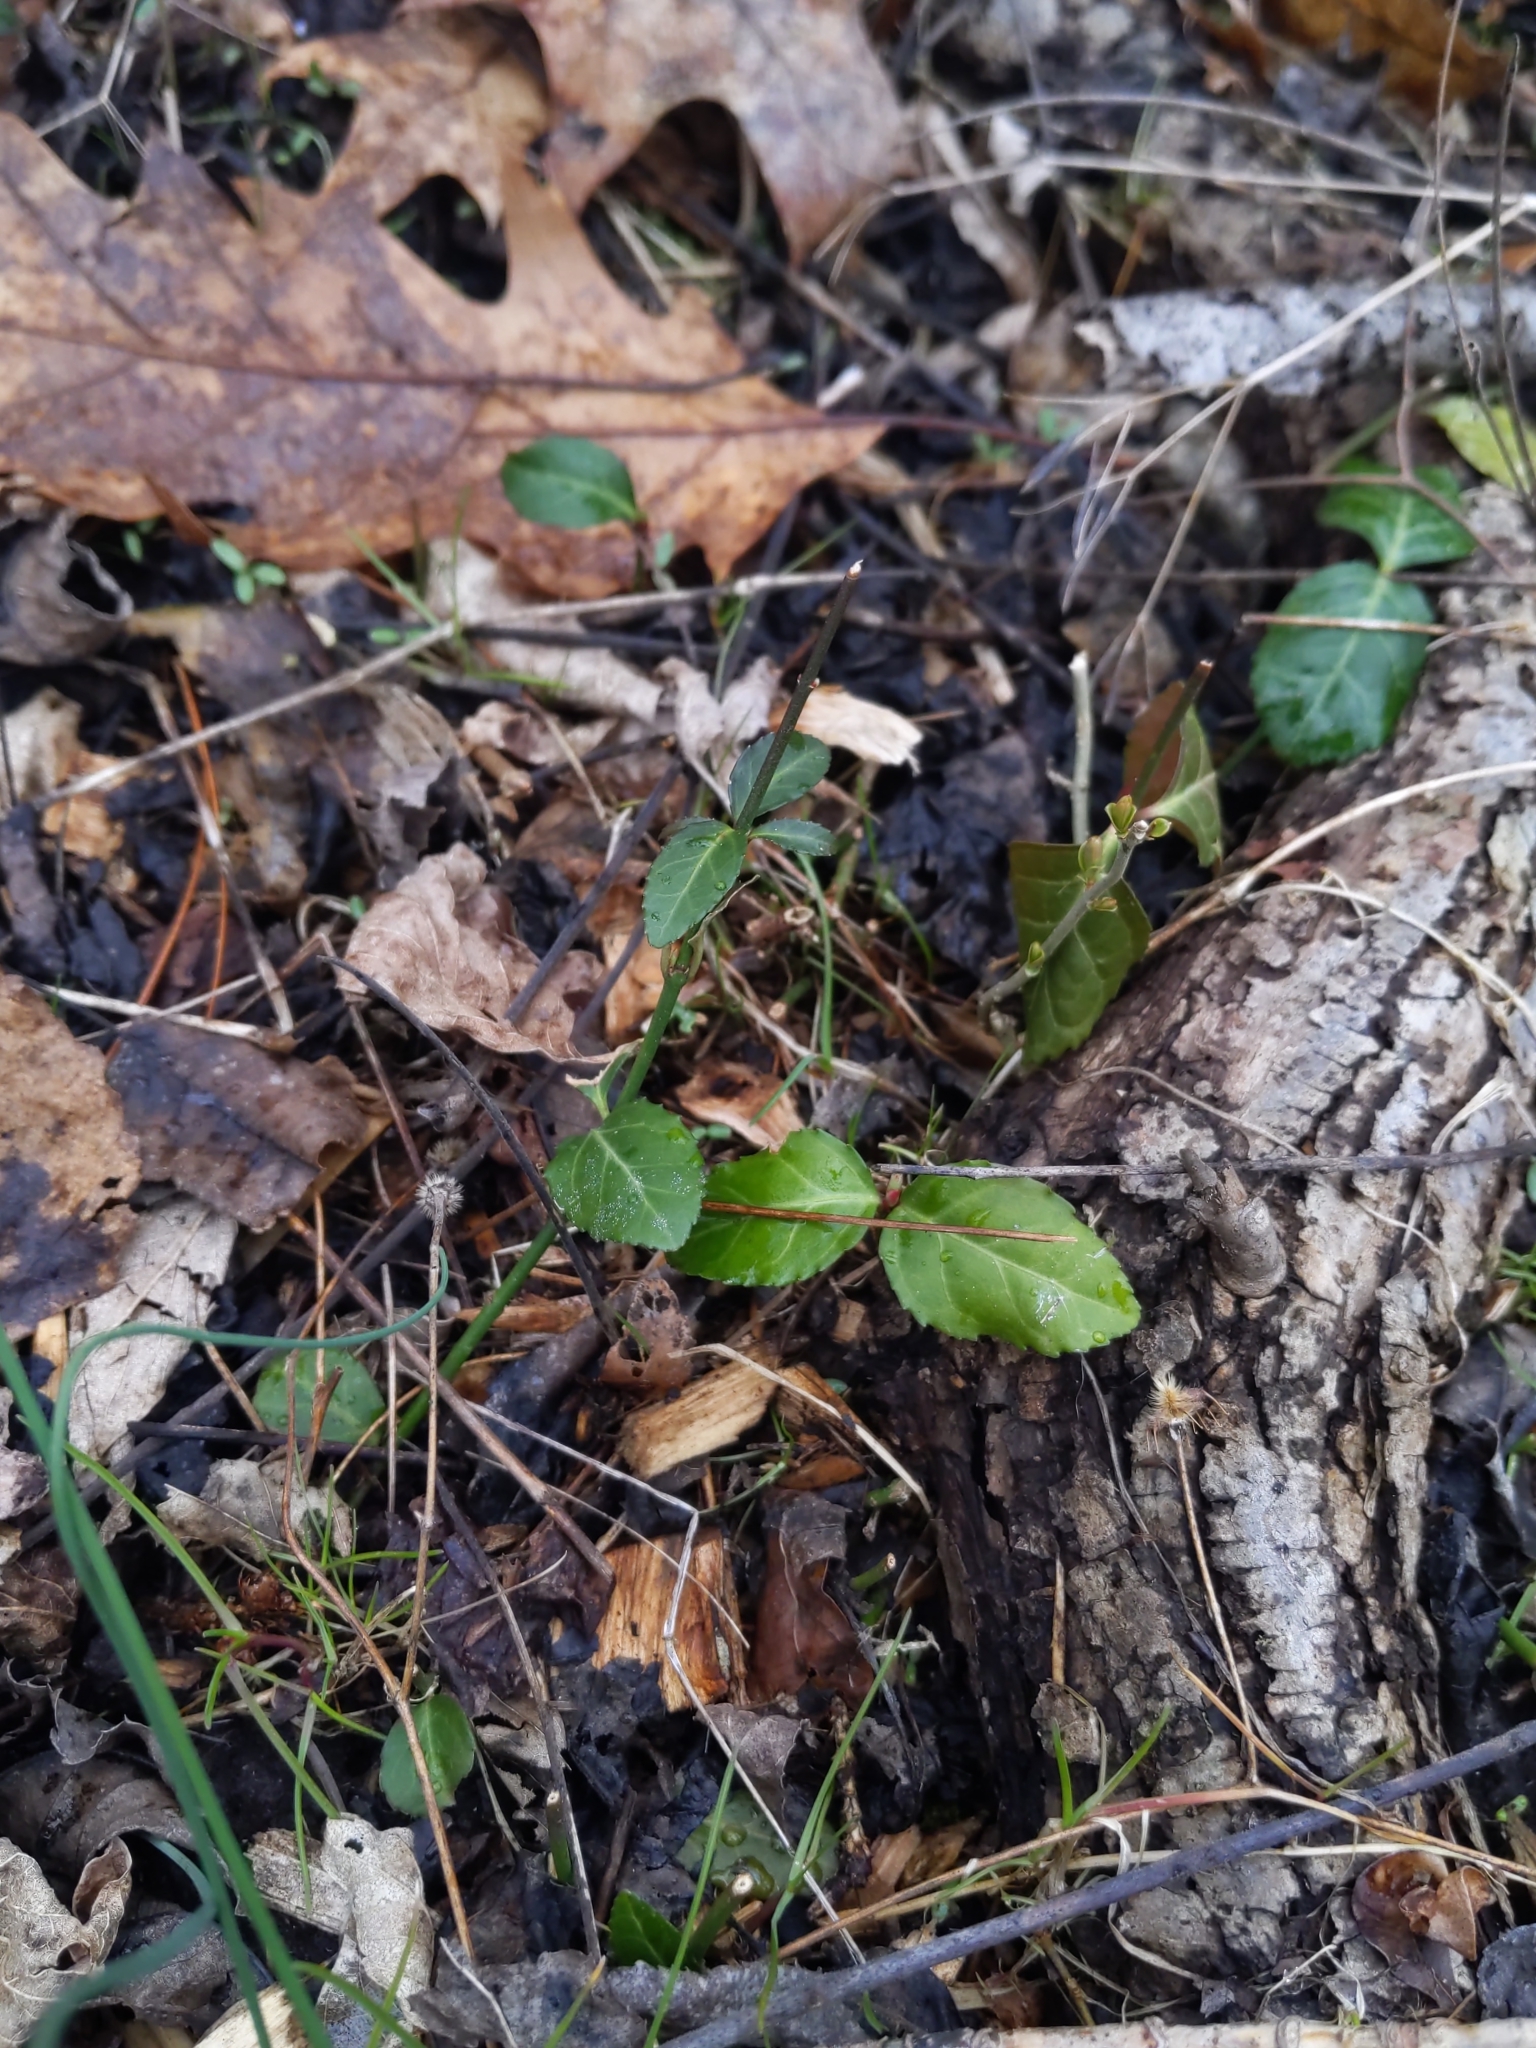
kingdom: Plantae
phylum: Tracheophyta
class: Magnoliopsida
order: Celastrales
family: Celastraceae
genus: Euonymus
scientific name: Euonymus fortunei
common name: Climbing euonymus
